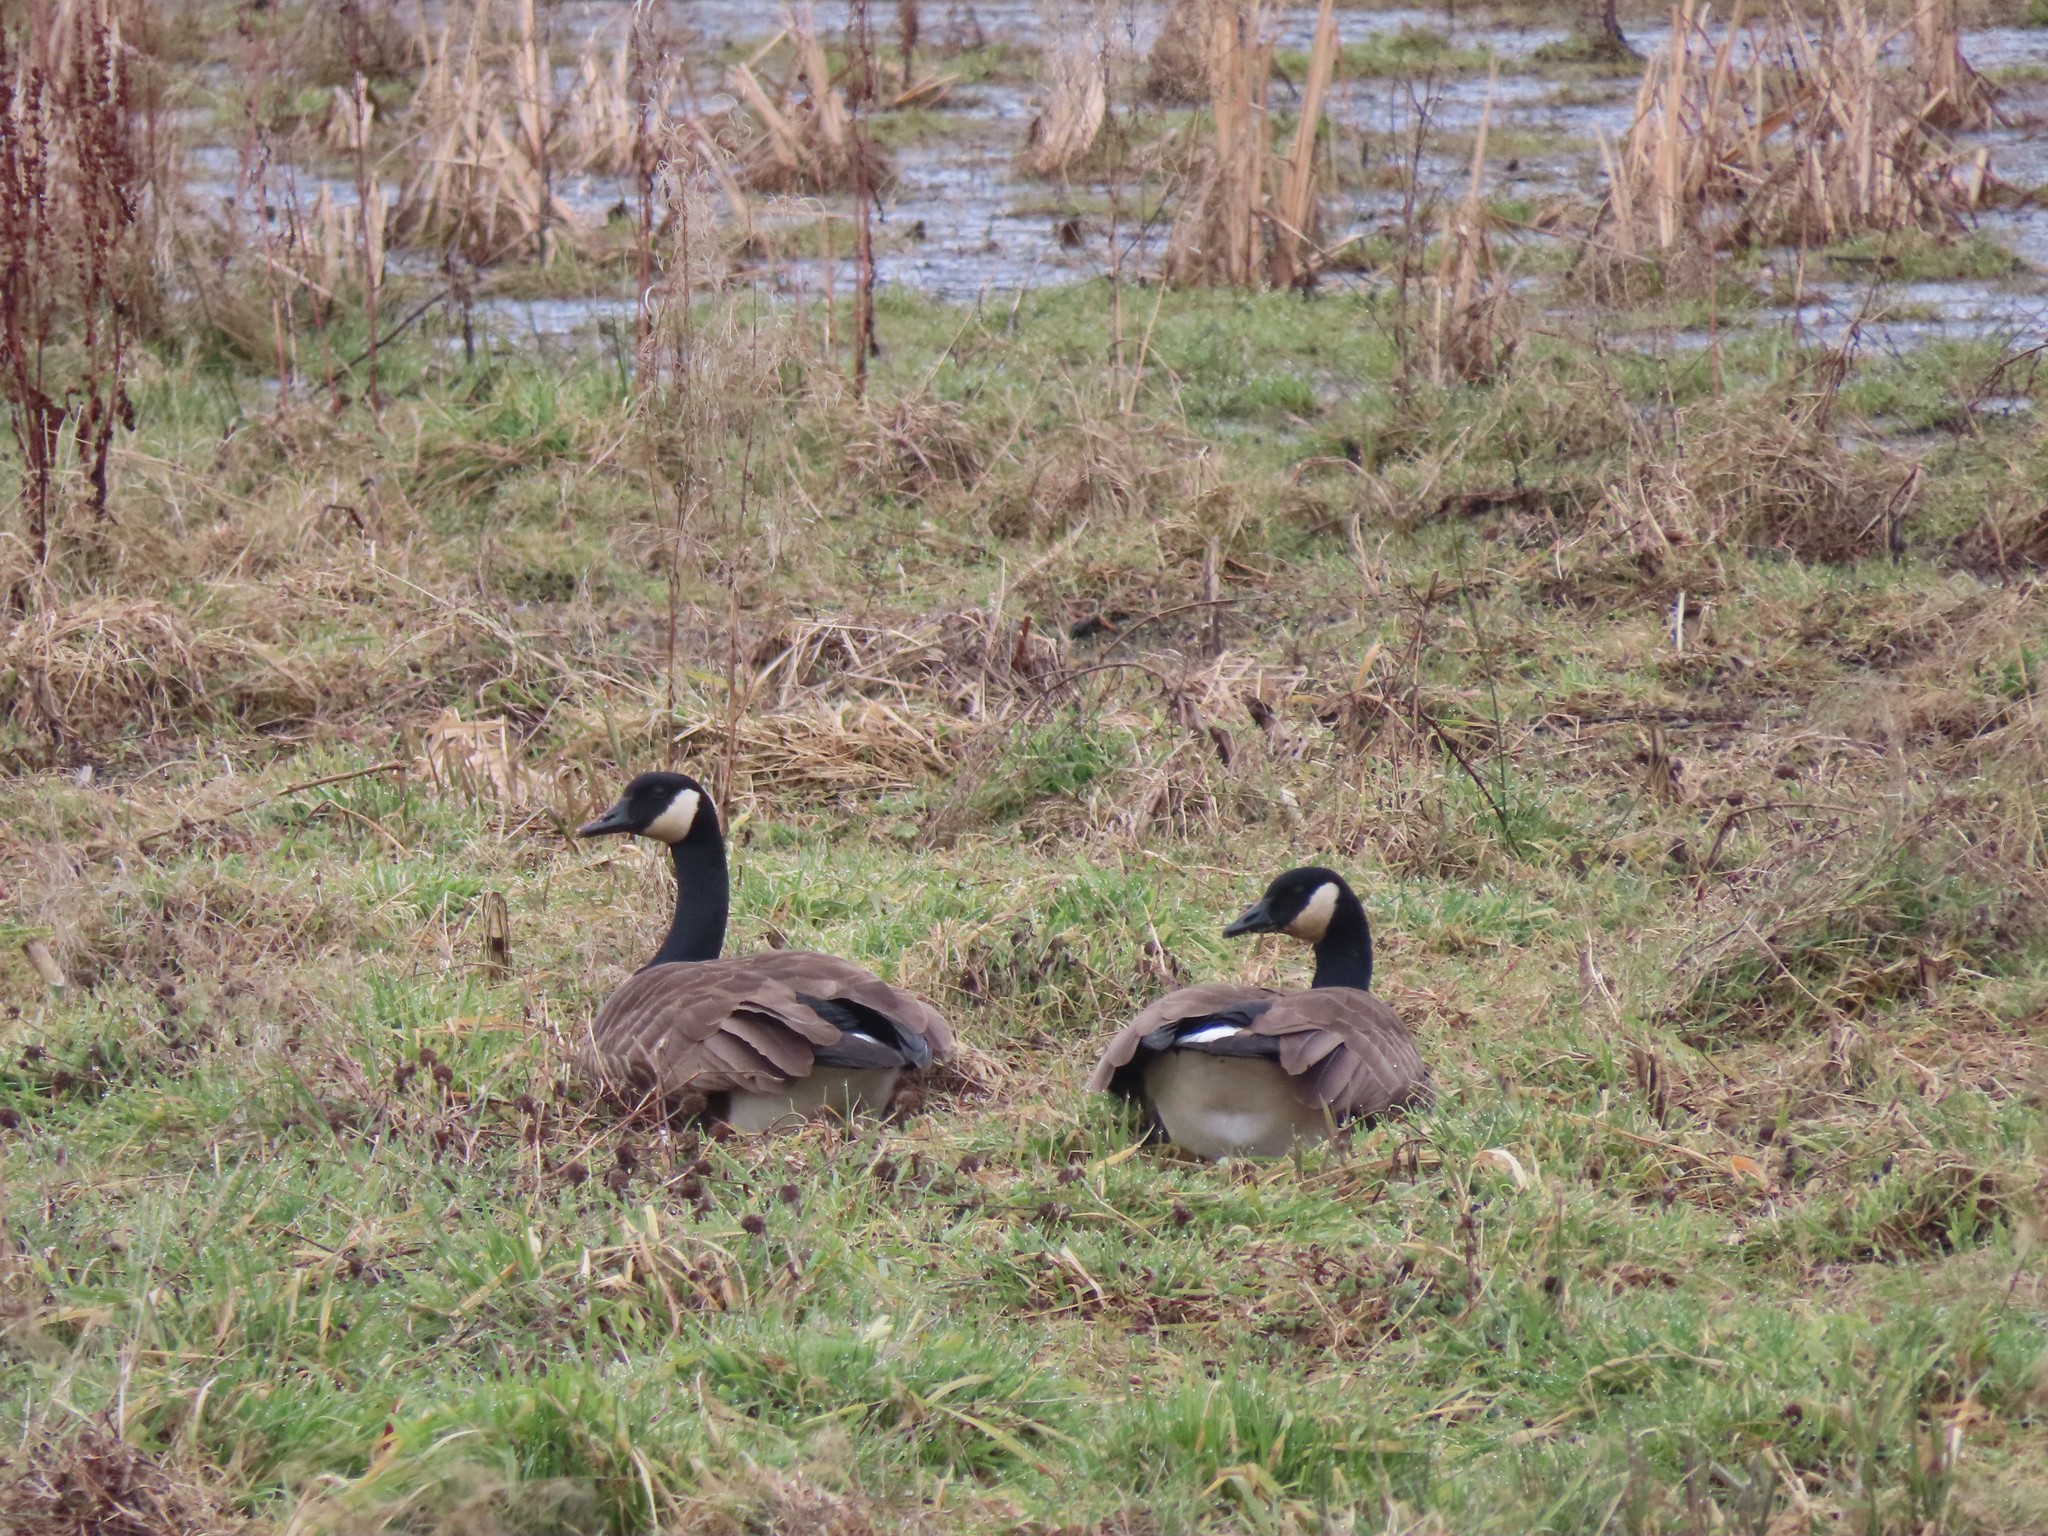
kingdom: Animalia
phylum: Chordata
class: Aves
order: Anseriformes
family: Anatidae
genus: Branta
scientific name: Branta canadensis
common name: Canada goose
